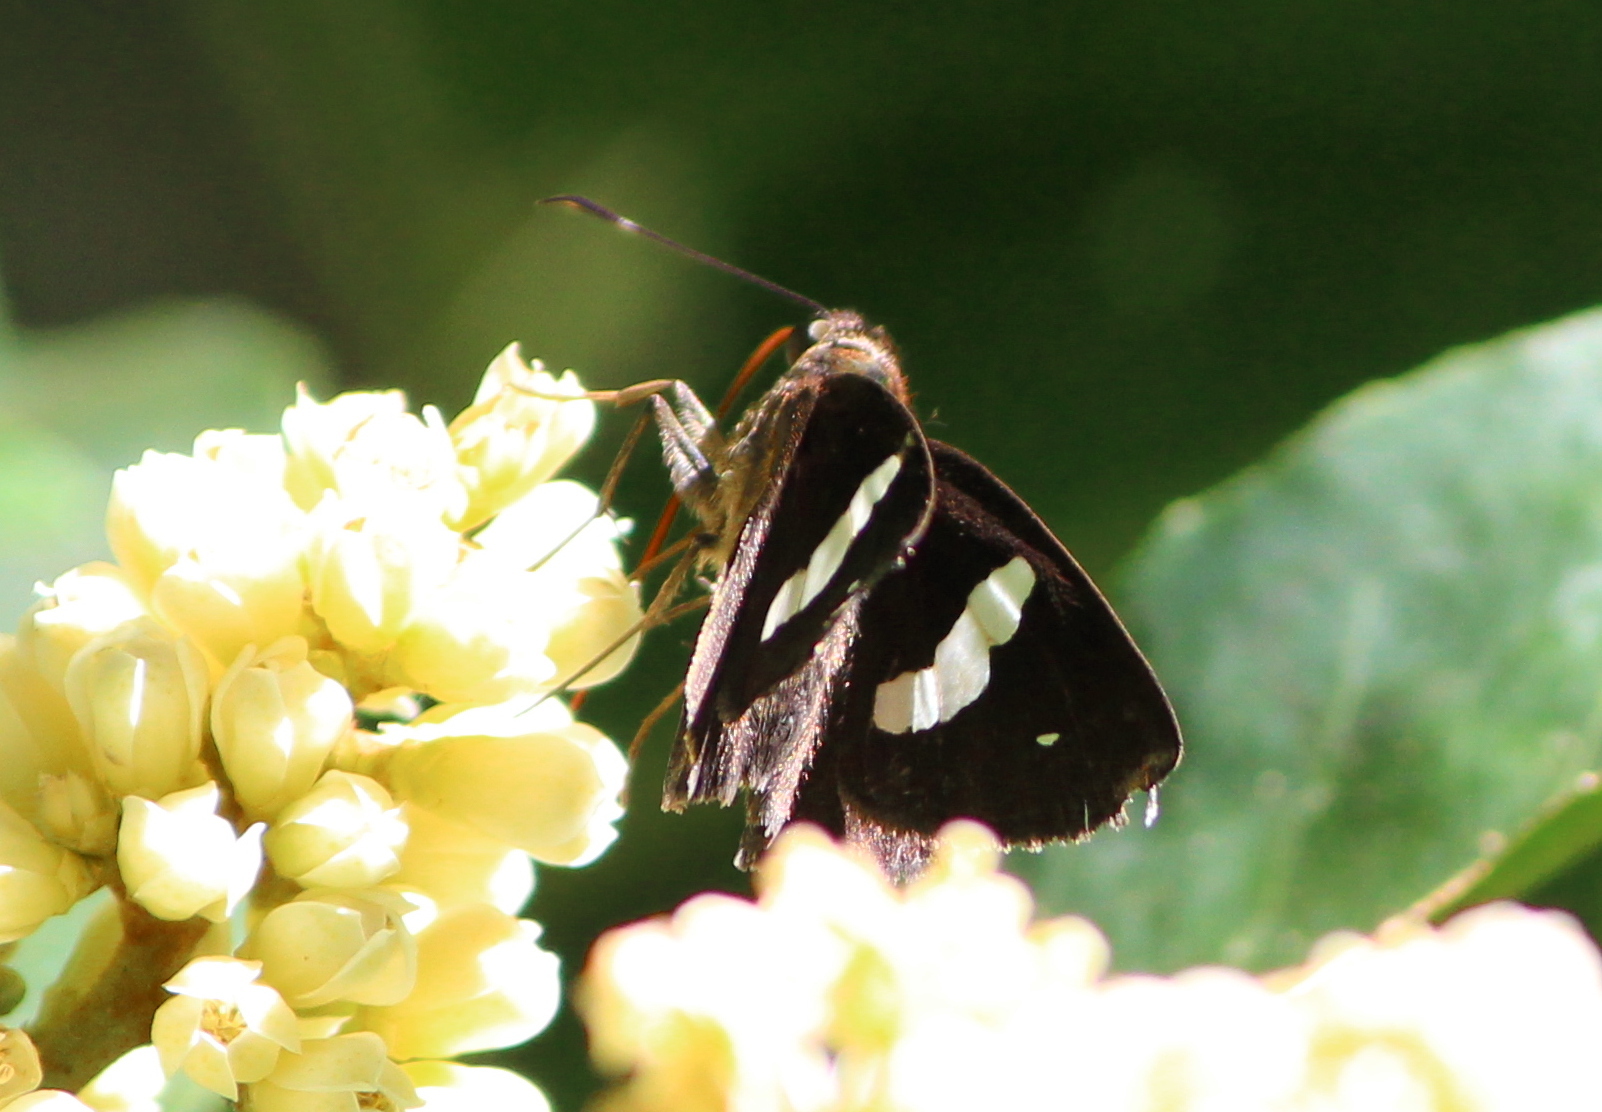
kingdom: Animalia
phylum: Arthropoda
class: Insecta
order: Lepidoptera
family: Hesperiidae
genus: Notocrypta
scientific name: Notocrypta paralysos
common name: Common banded demon
